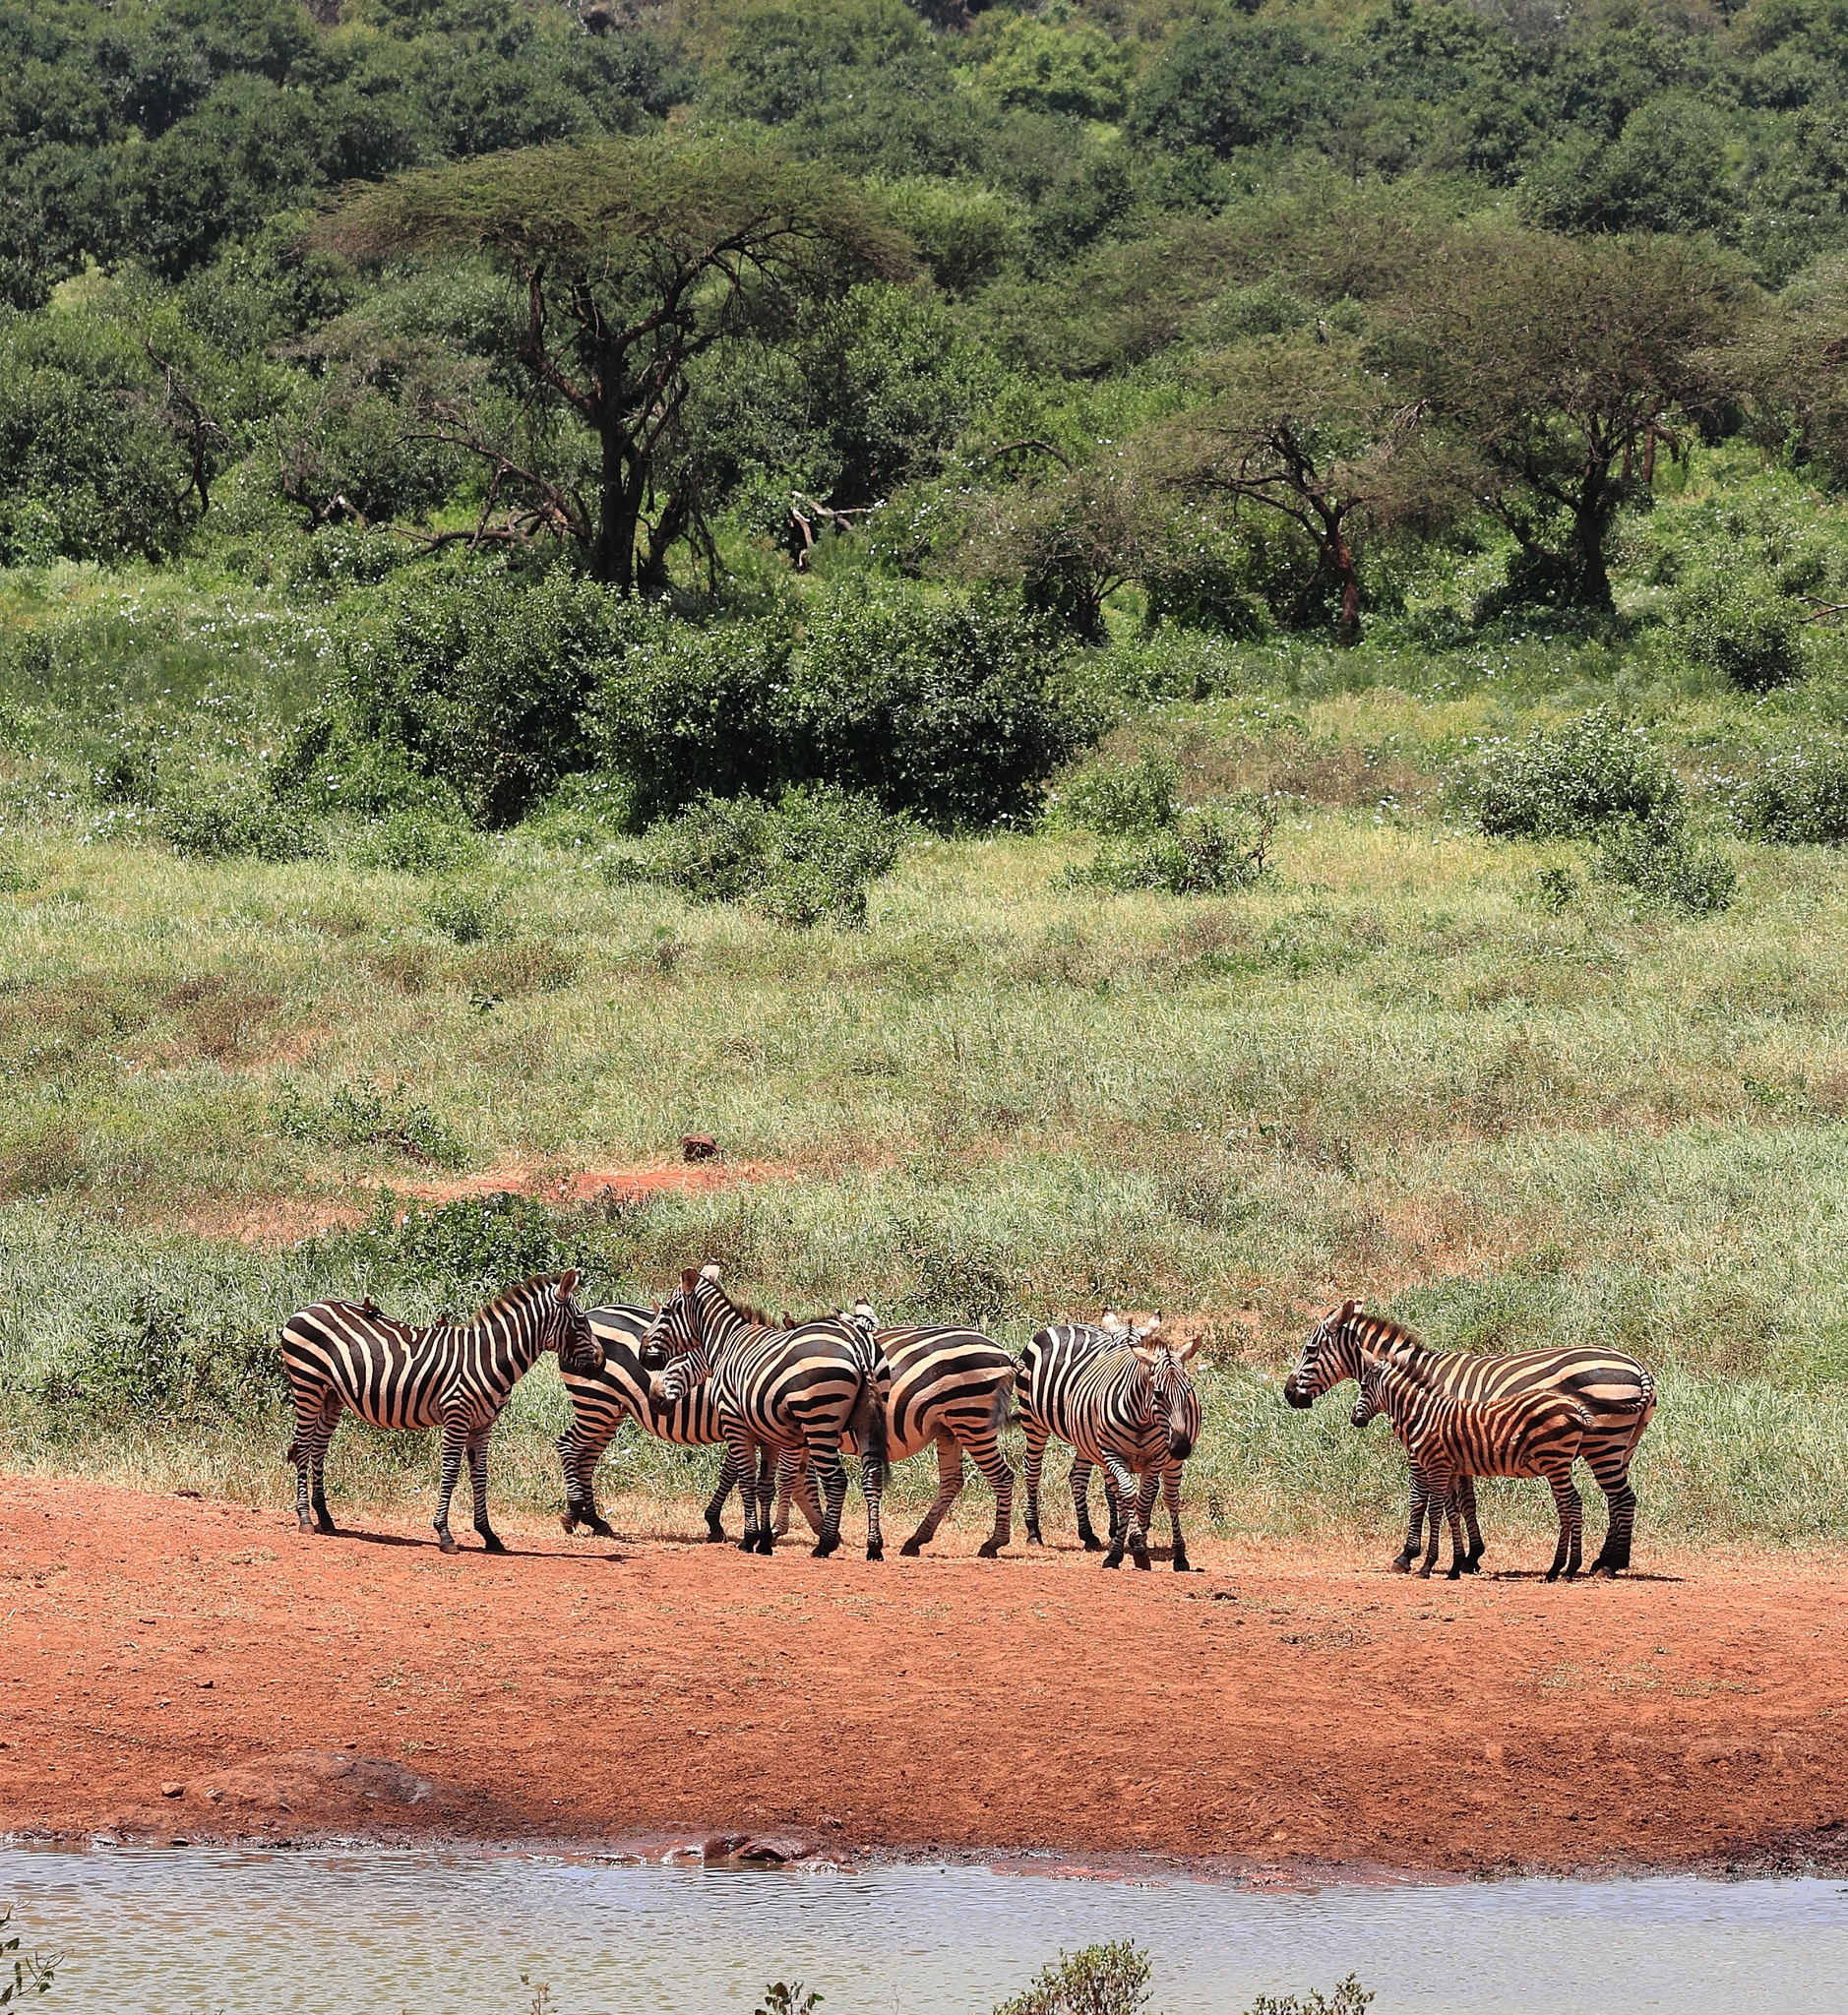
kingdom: Animalia
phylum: Chordata
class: Mammalia
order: Perissodactyla
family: Equidae
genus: Equus
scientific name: Equus quagga
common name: Plains zebra
